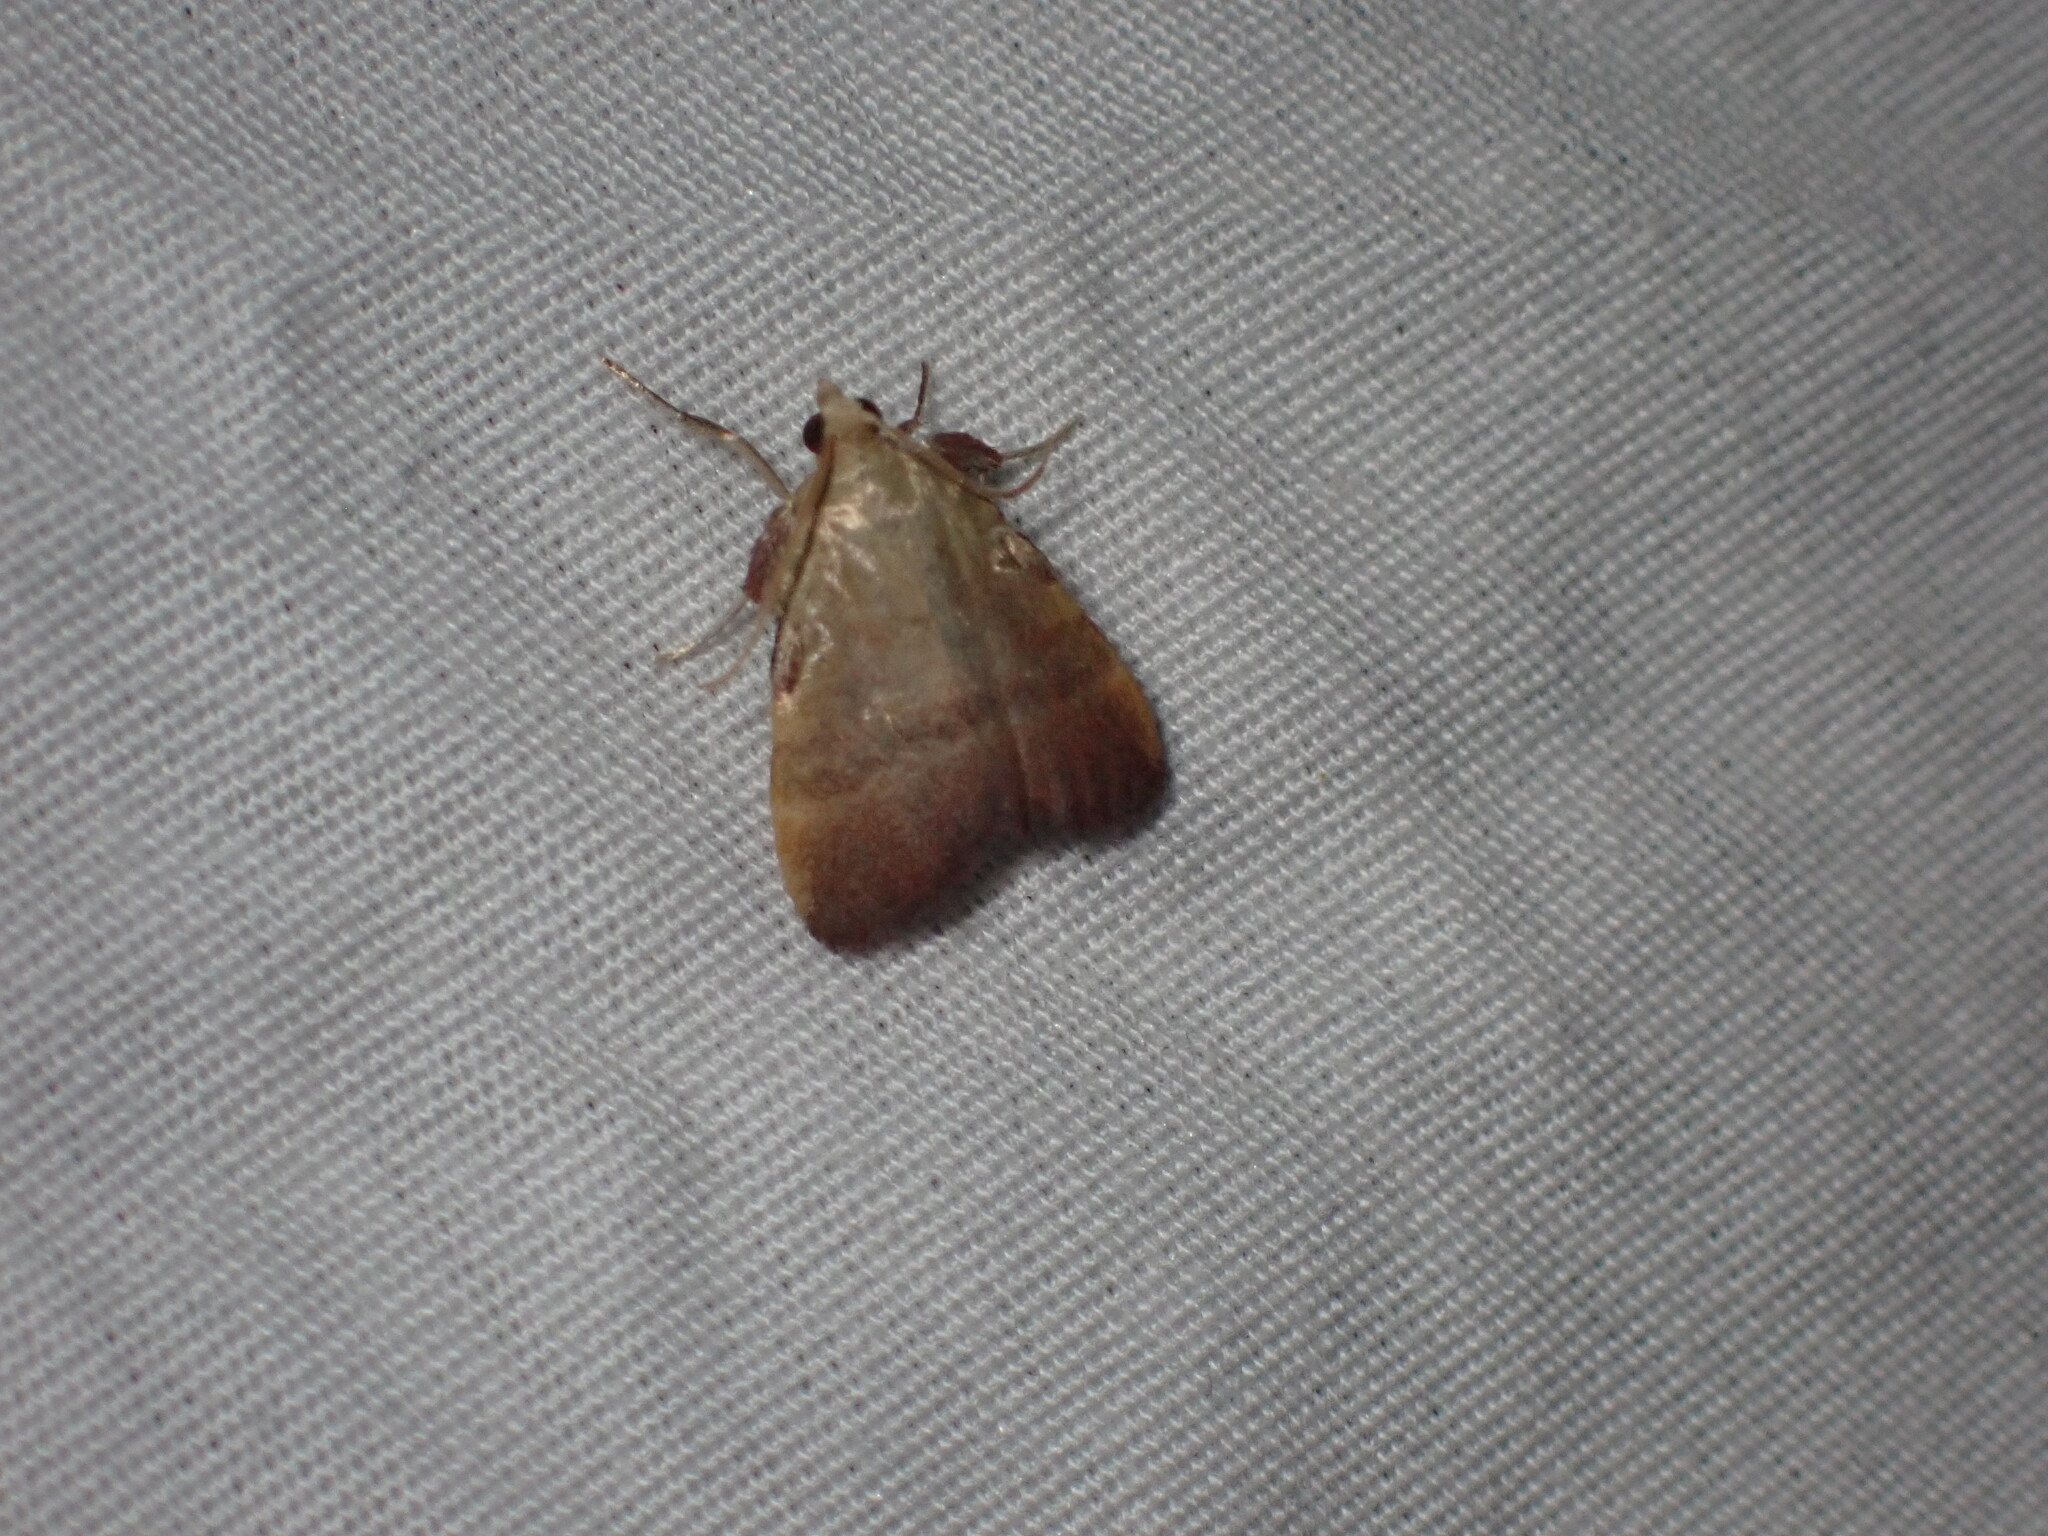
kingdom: Animalia
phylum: Arthropoda
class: Insecta
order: Lepidoptera
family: Pyralidae
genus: Condylolomia
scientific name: Condylolomia participialis
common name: Drab condylolomia moth
